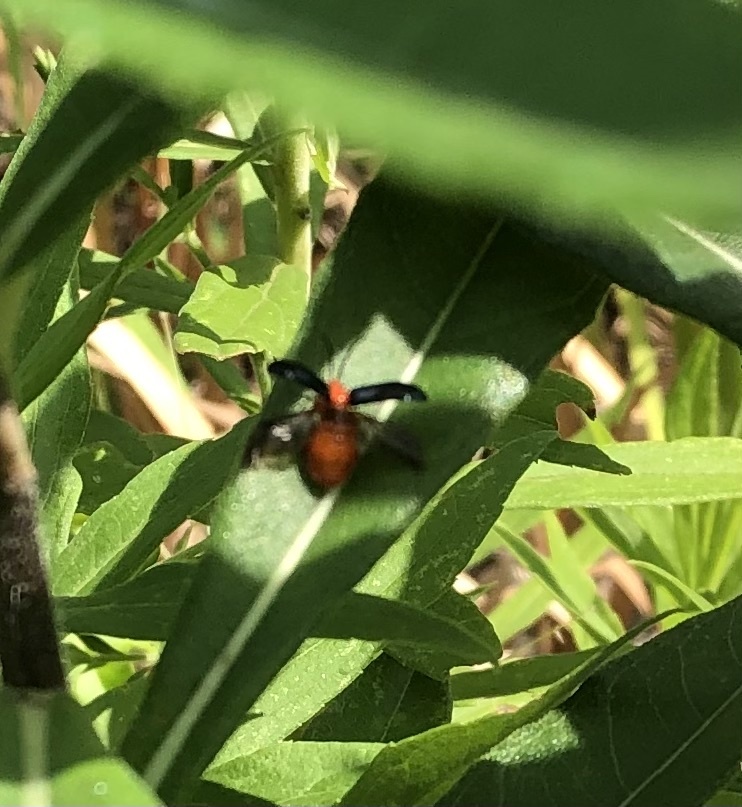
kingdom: Animalia
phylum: Arthropoda
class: Insecta
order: Coleoptera
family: Chrysomelidae
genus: Asphaera
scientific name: Asphaera lustrans
